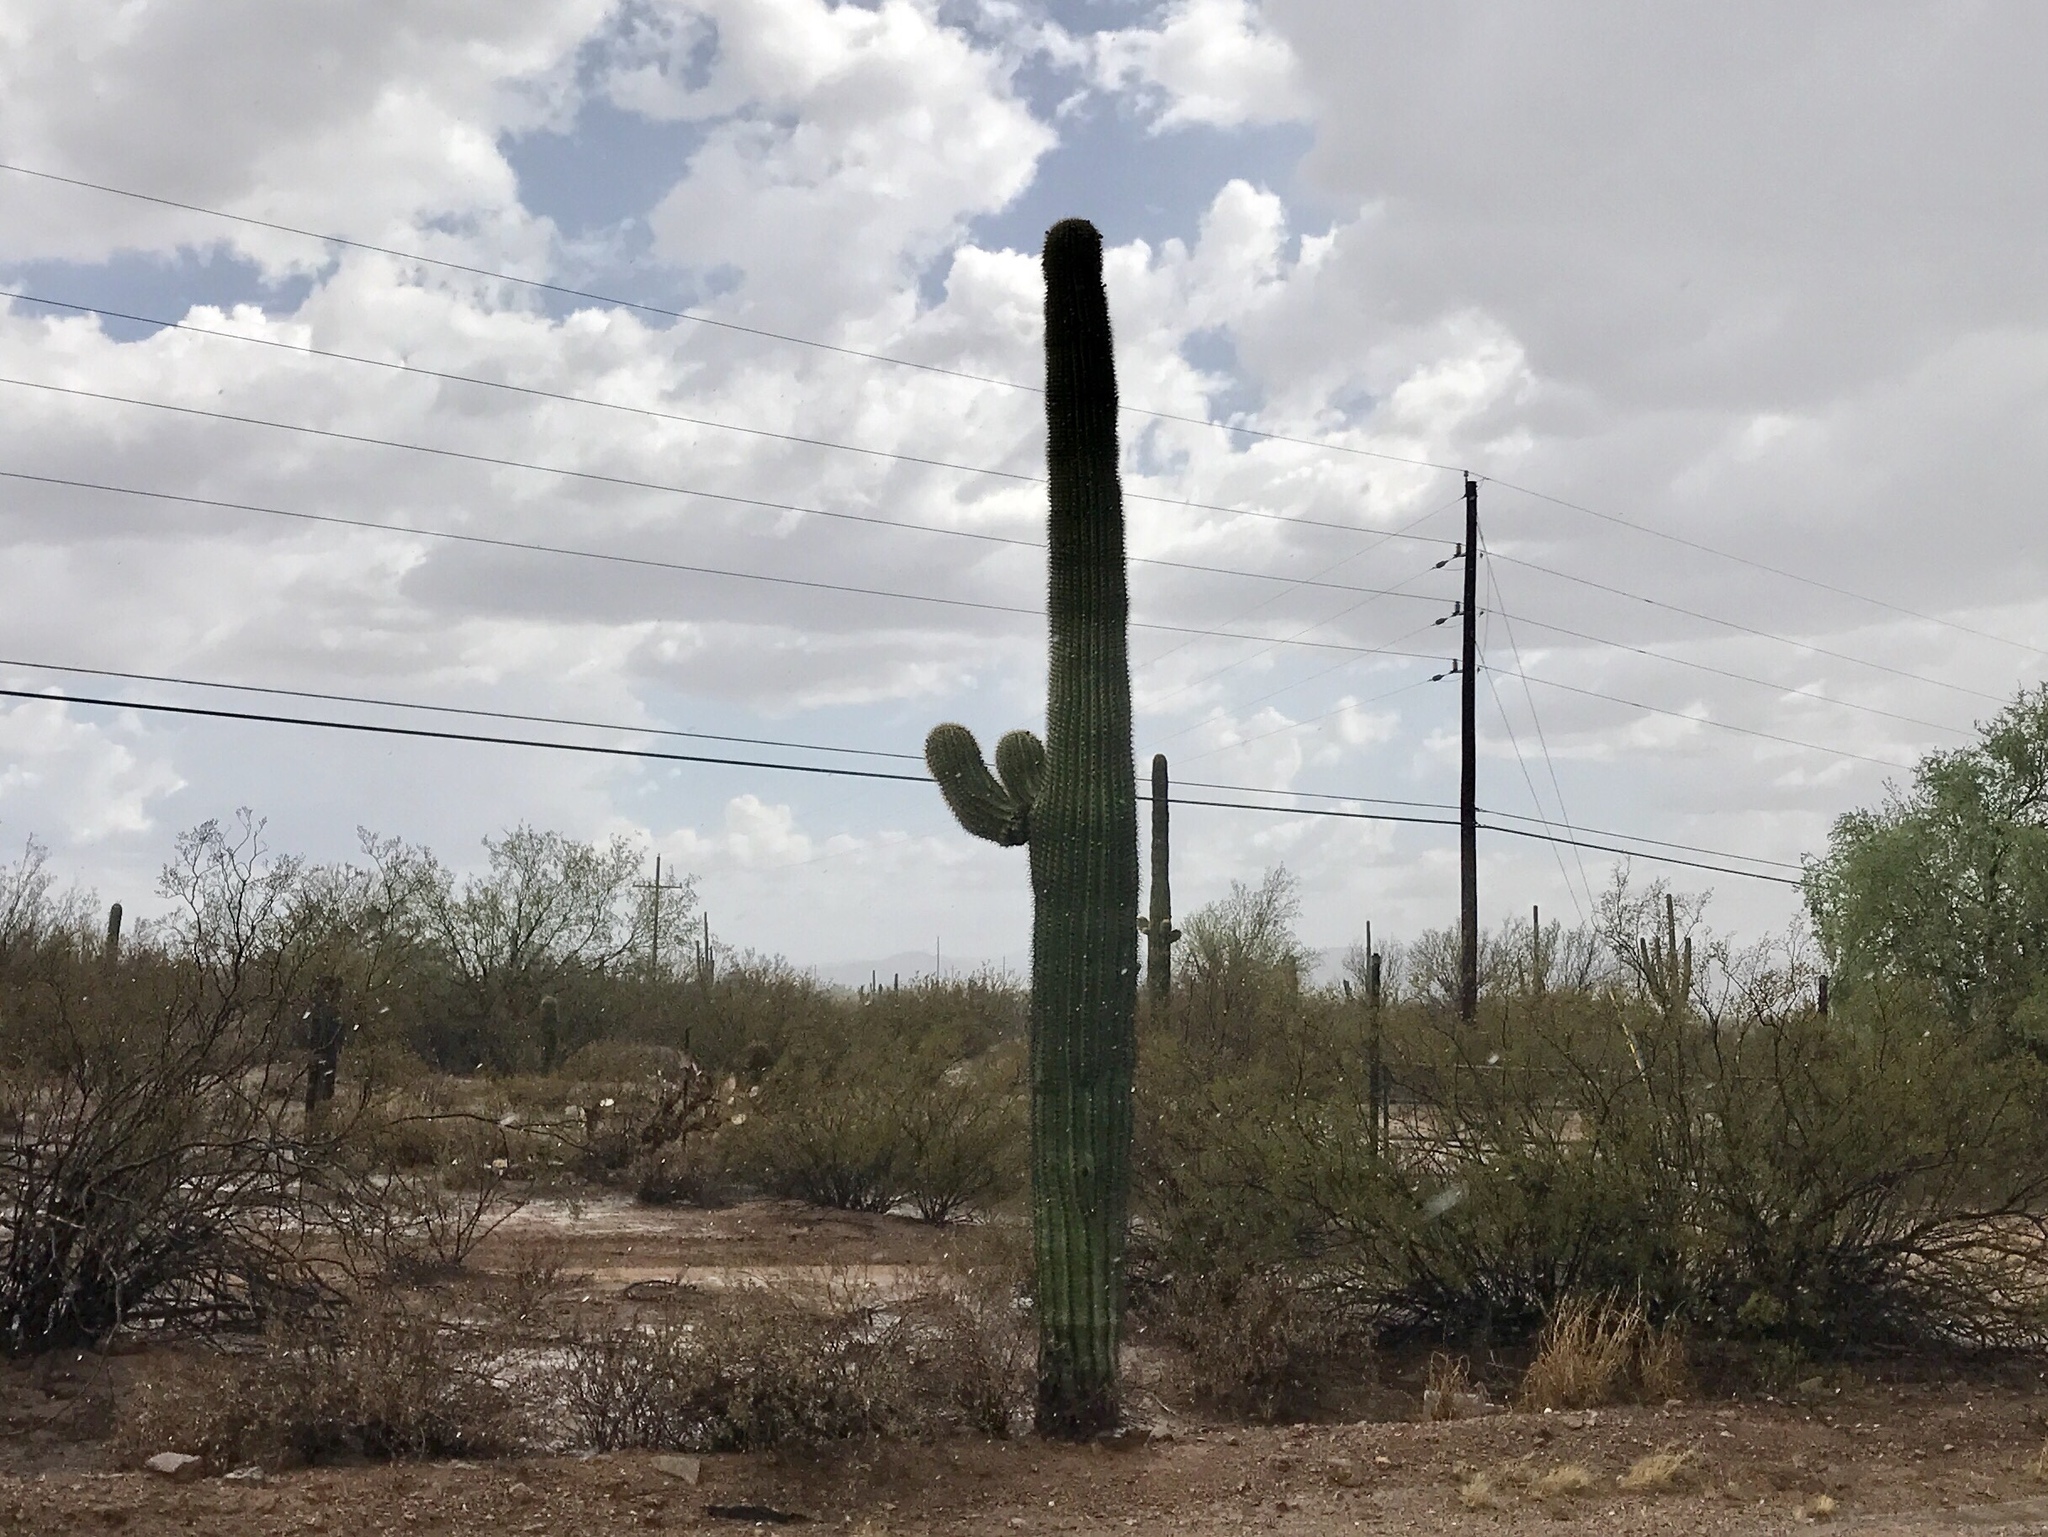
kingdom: Plantae
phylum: Tracheophyta
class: Magnoliopsida
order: Caryophyllales
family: Cactaceae
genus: Carnegiea
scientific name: Carnegiea gigantea
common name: Saguaro
